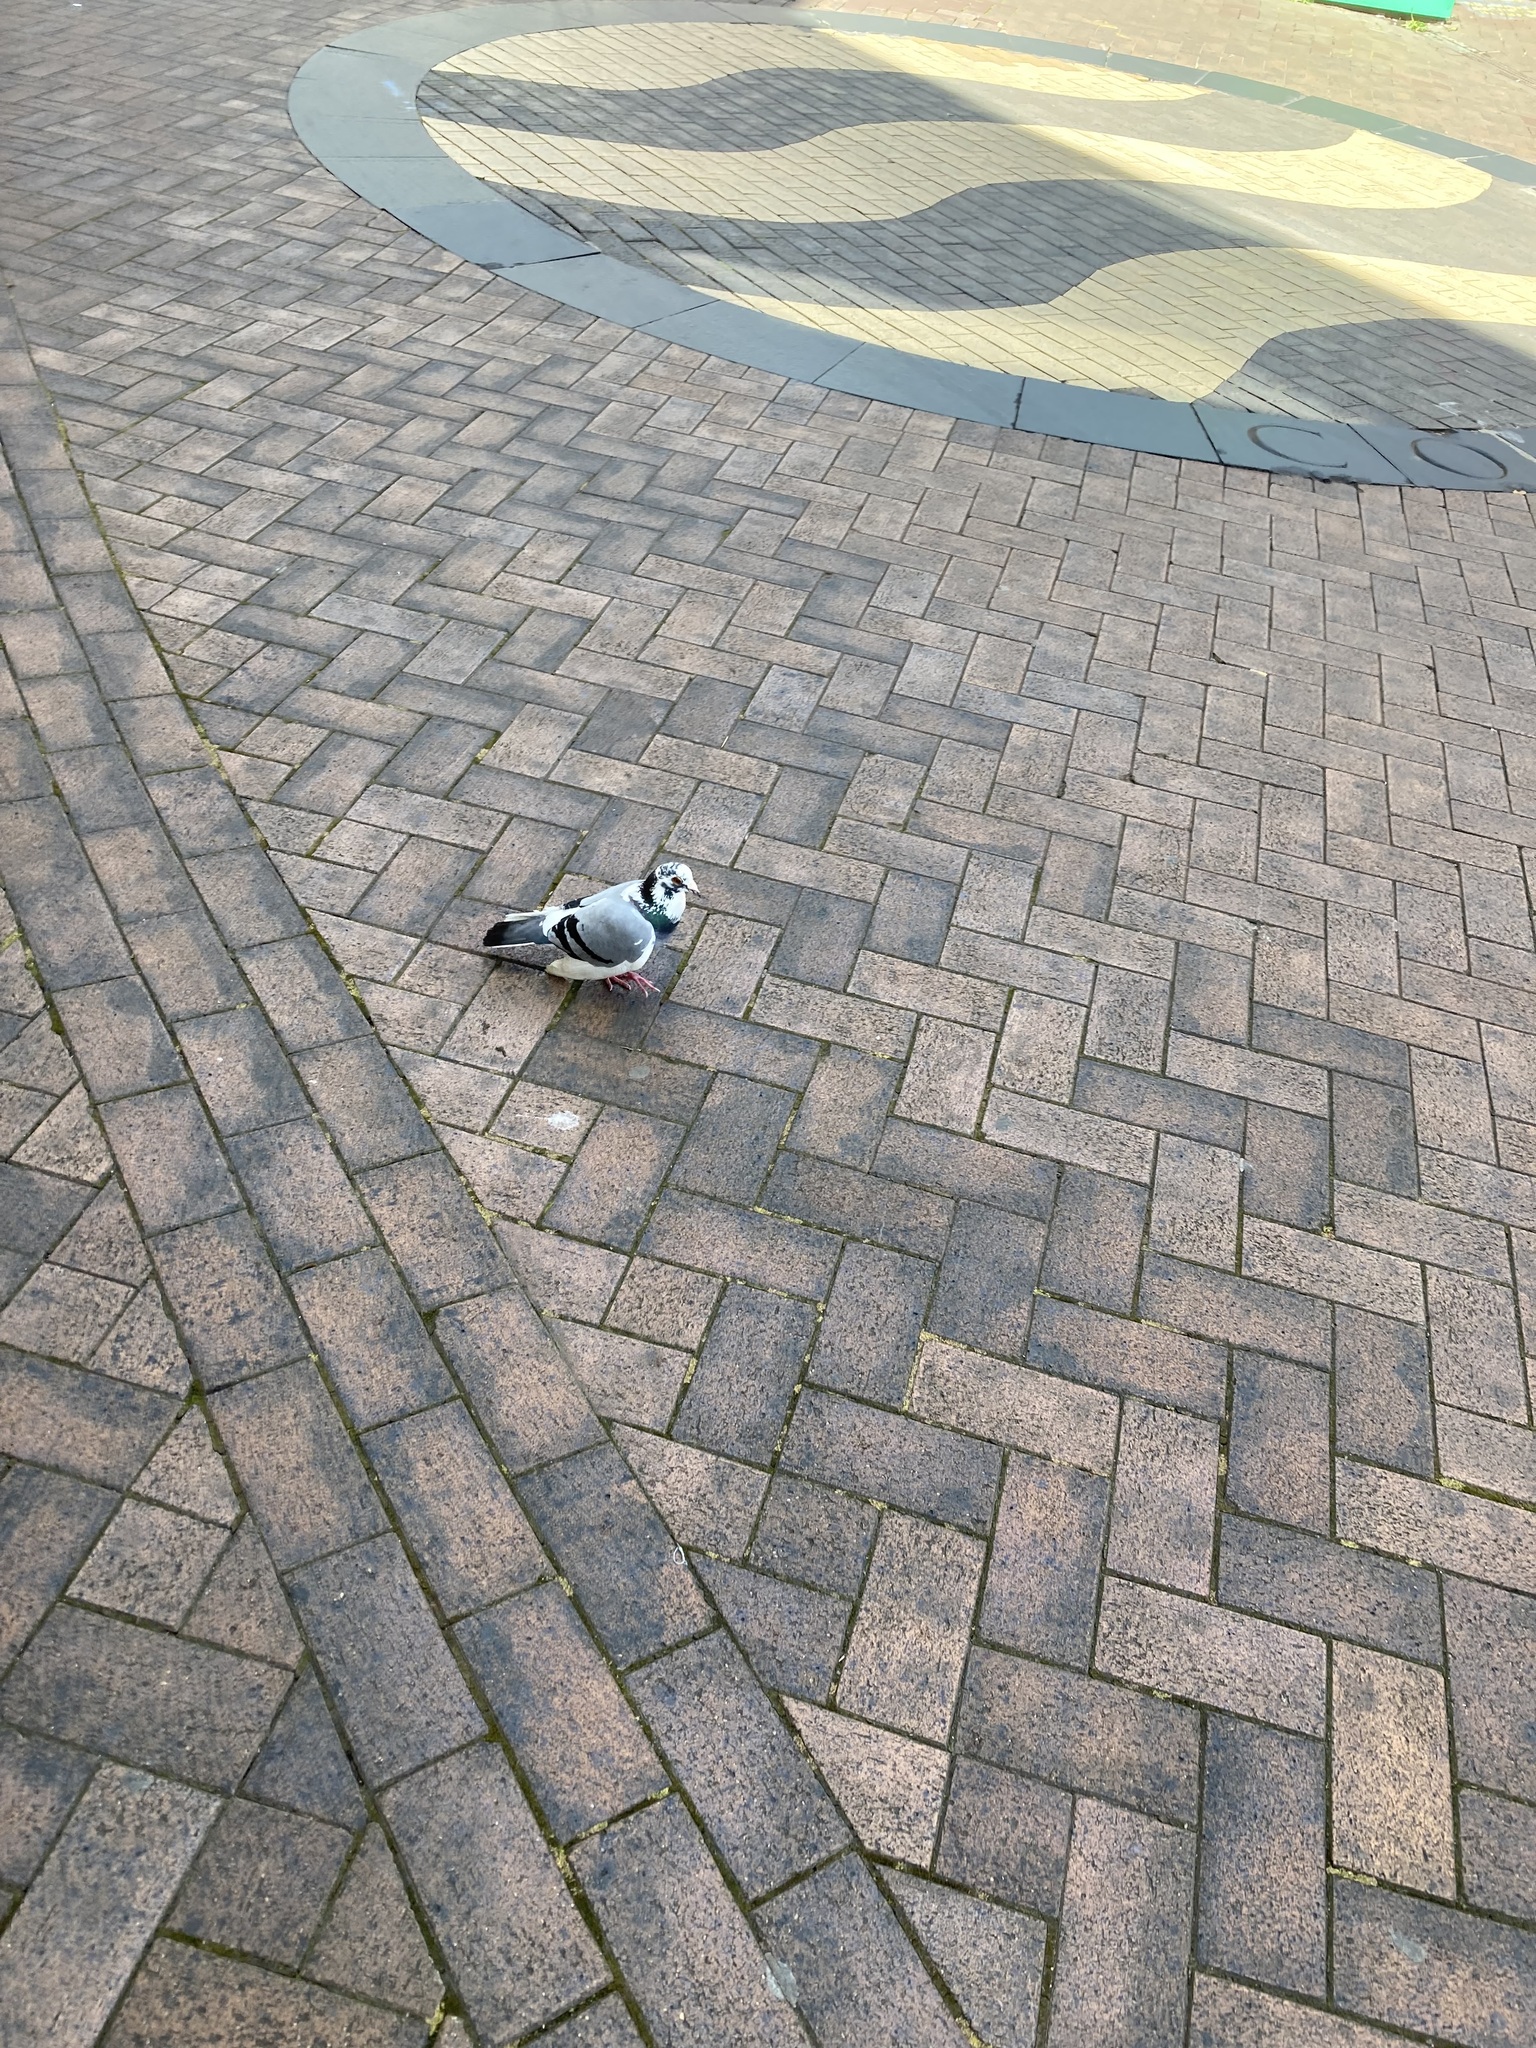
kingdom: Animalia
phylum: Chordata
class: Aves
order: Columbiformes
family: Columbidae
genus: Columba
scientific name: Columba livia
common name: Rock pigeon
